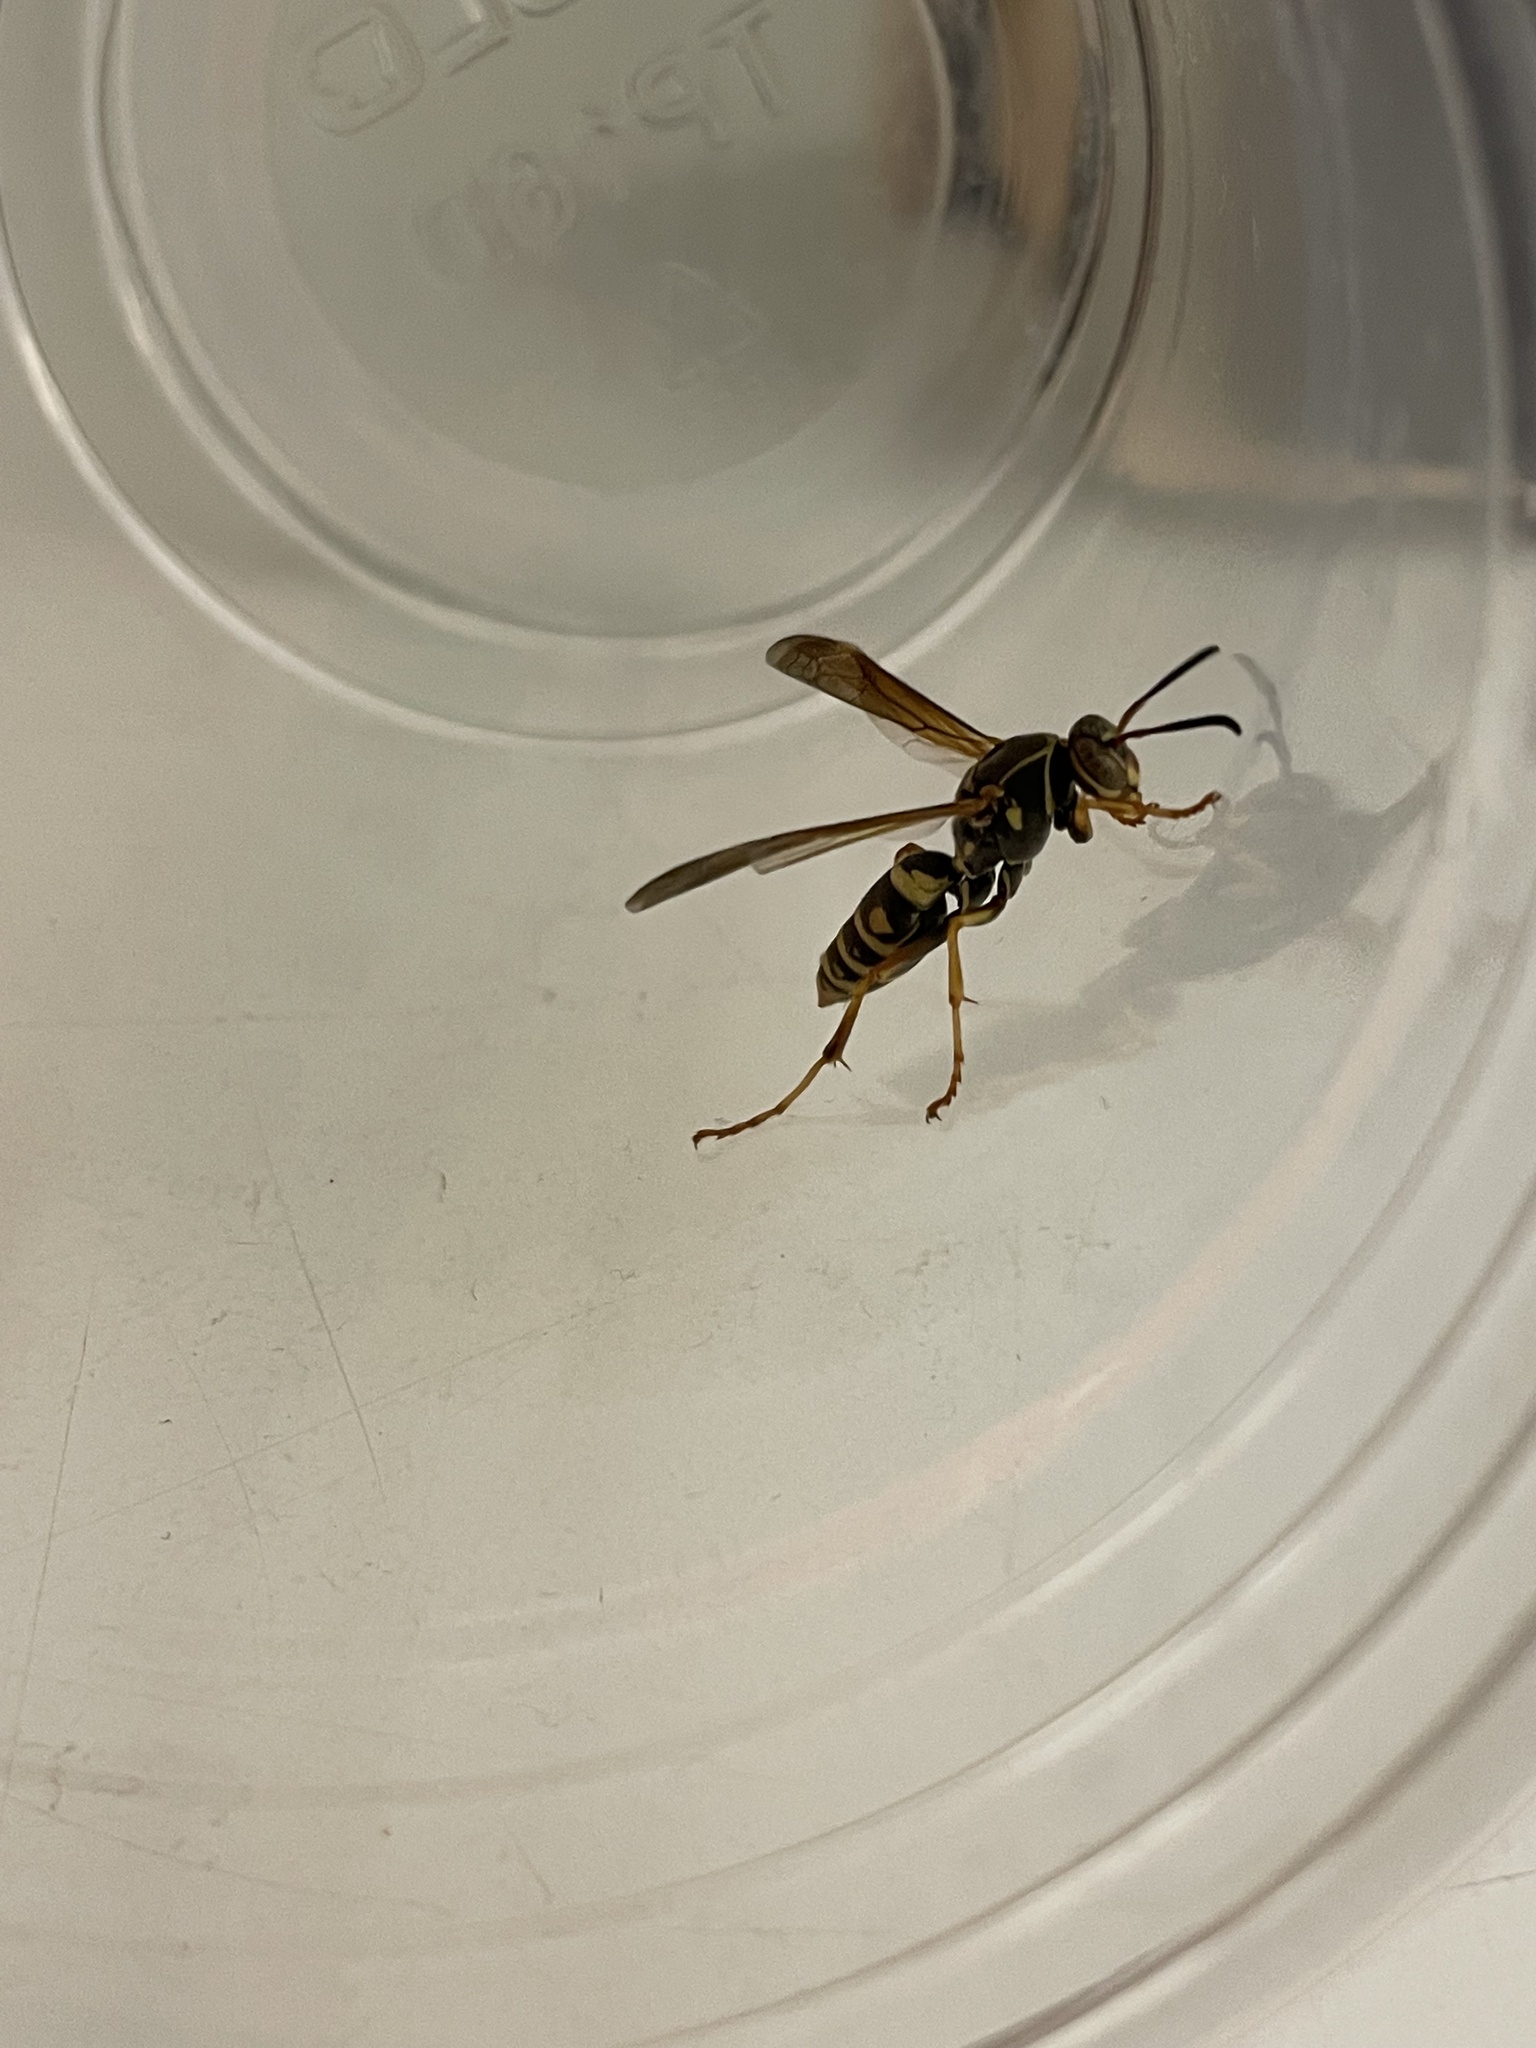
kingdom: Animalia
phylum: Arthropoda
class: Insecta
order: Hymenoptera
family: Eumenidae
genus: Polistes
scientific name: Polistes fuscatus
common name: Dark paper wasp
